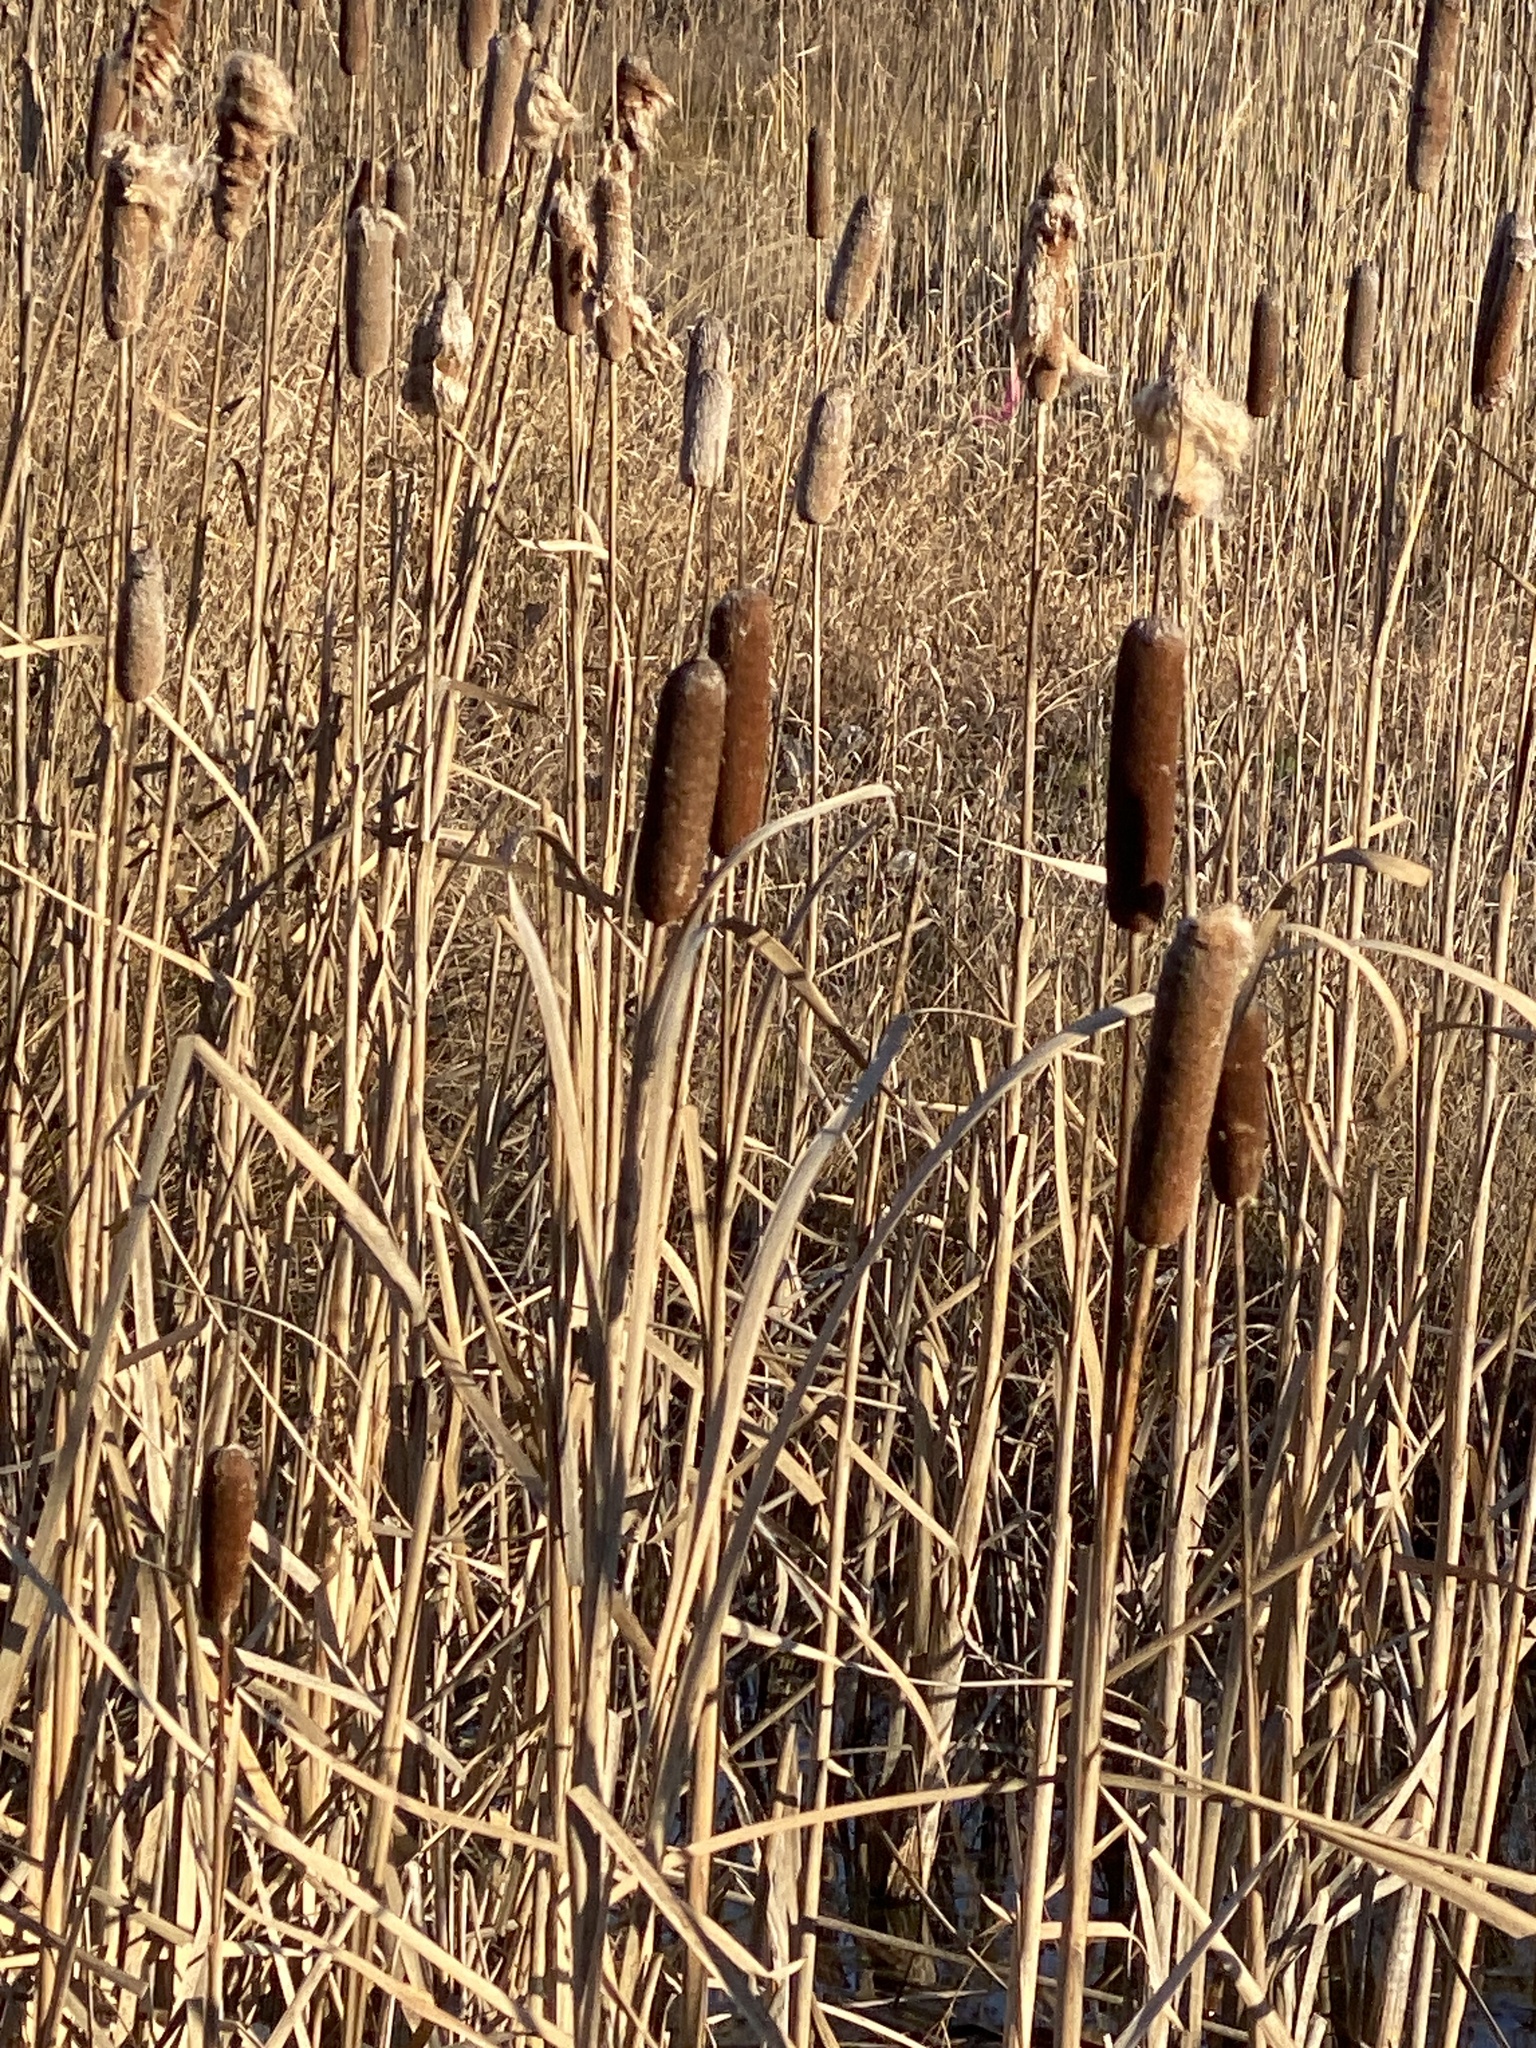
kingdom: Plantae
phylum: Tracheophyta
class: Liliopsida
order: Poales
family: Typhaceae
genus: Typha
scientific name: Typha
